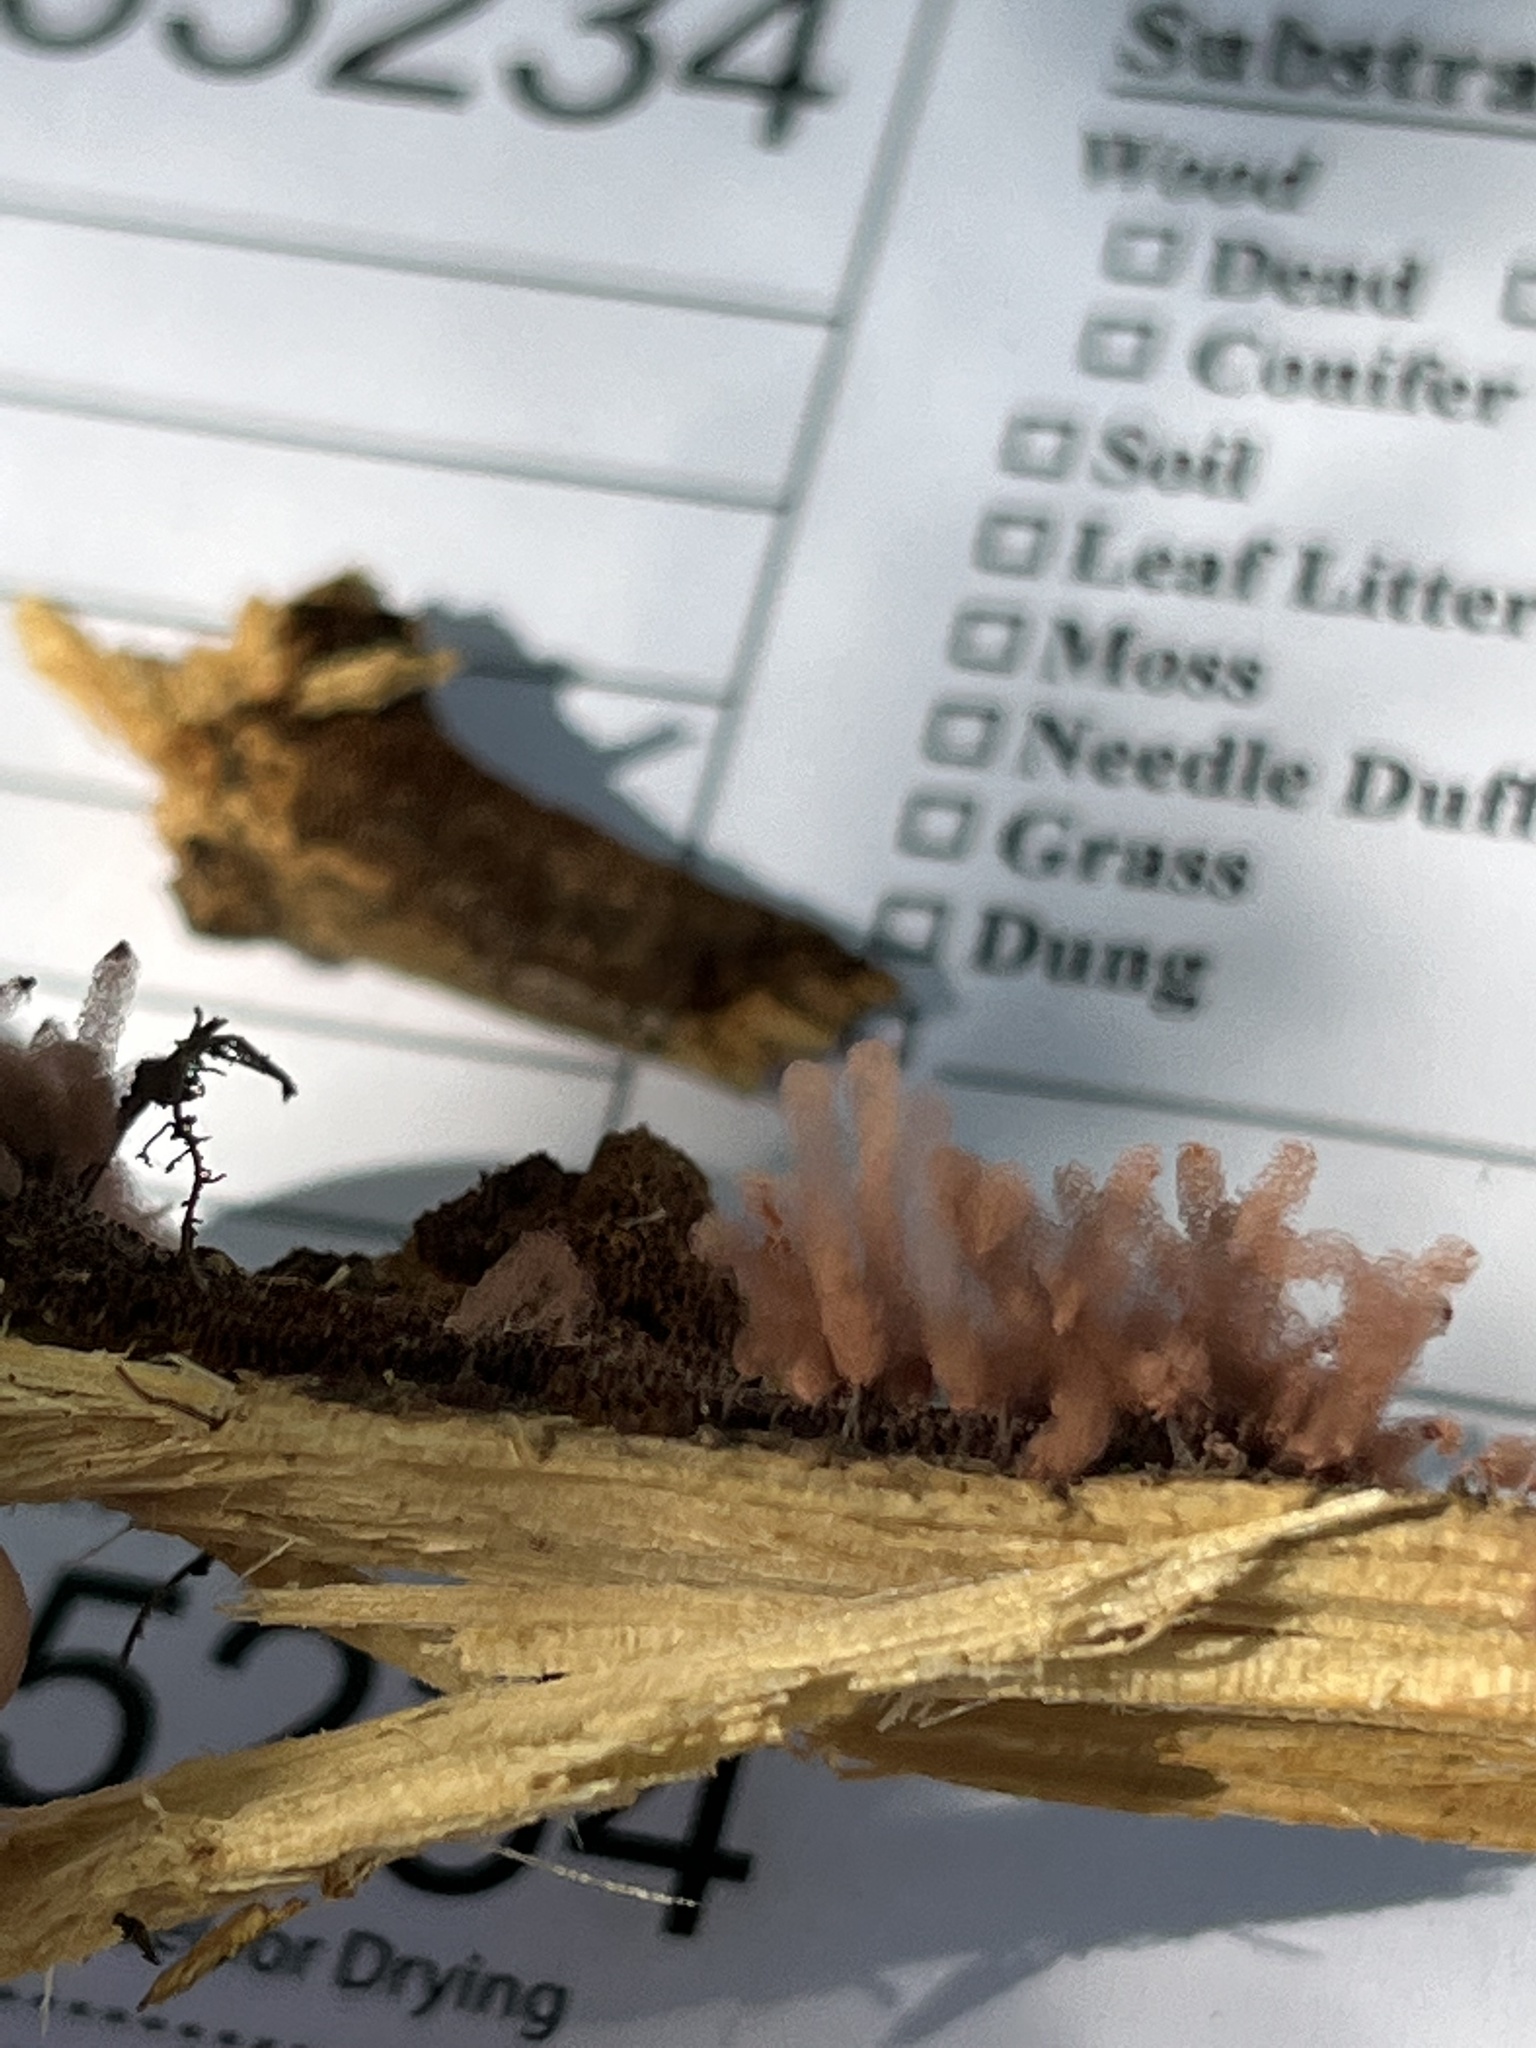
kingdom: Protozoa
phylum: Mycetozoa
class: Myxomycetes
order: Trichiales
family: Arcyriaceae
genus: Arcyria
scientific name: Arcyria denudata
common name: Carnival candy slime mold
